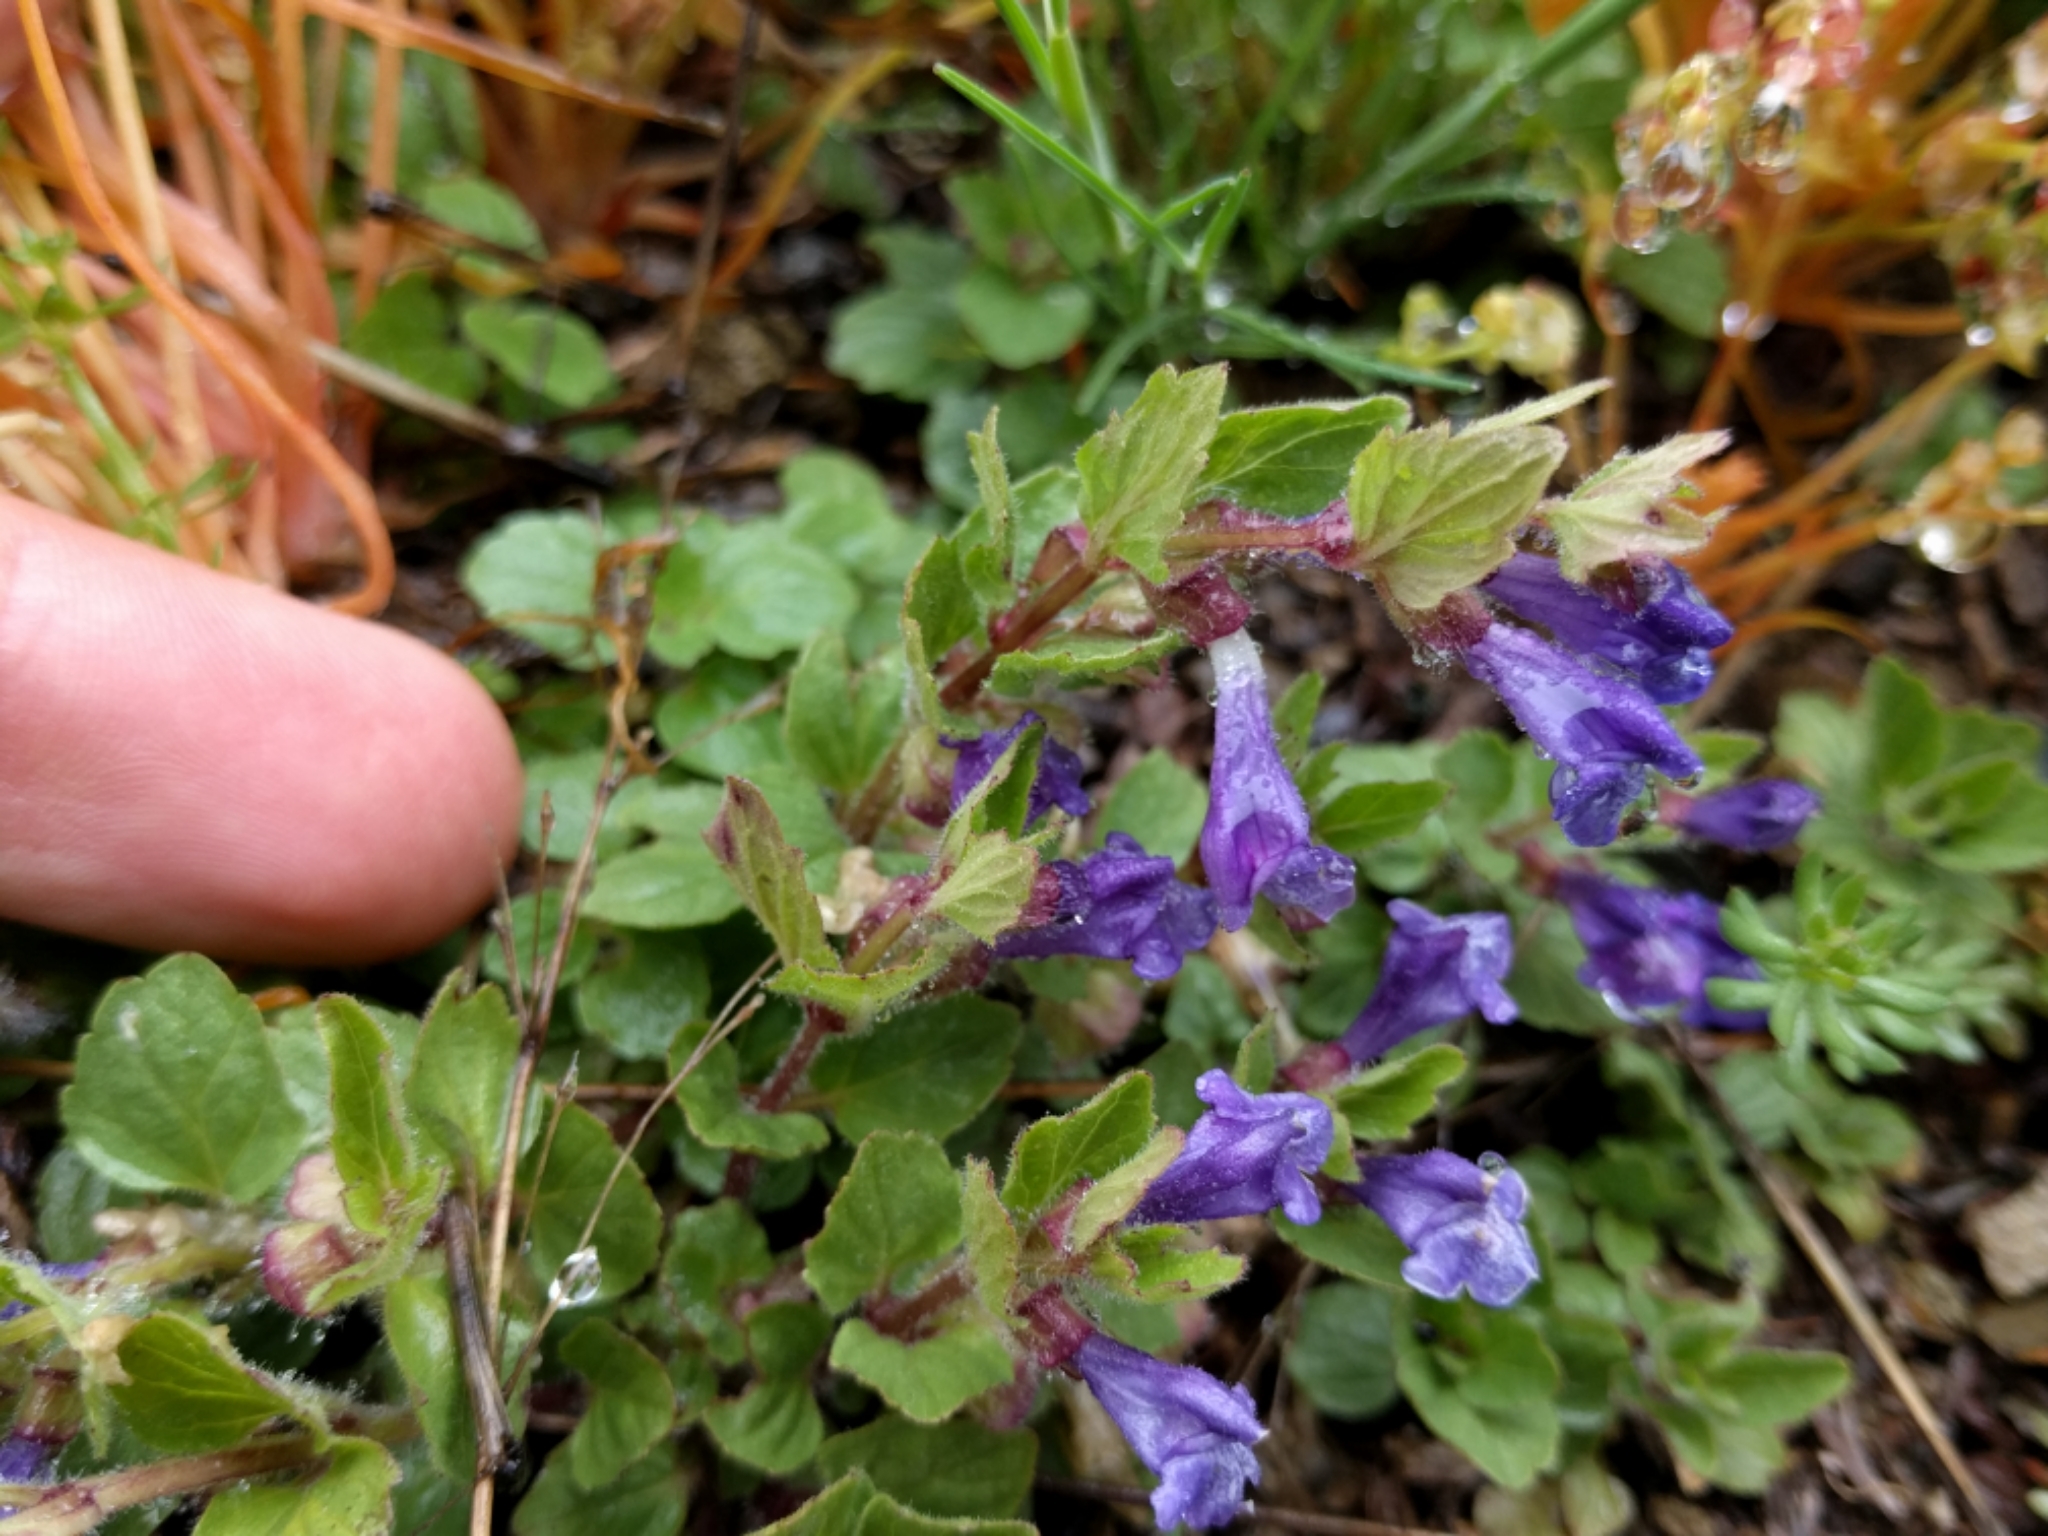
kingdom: Plantae
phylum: Tracheophyta
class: Magnoliopsida
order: Lamiales
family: Lamiaceae
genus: Scutellaria
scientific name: Scutellaria tuberosa
